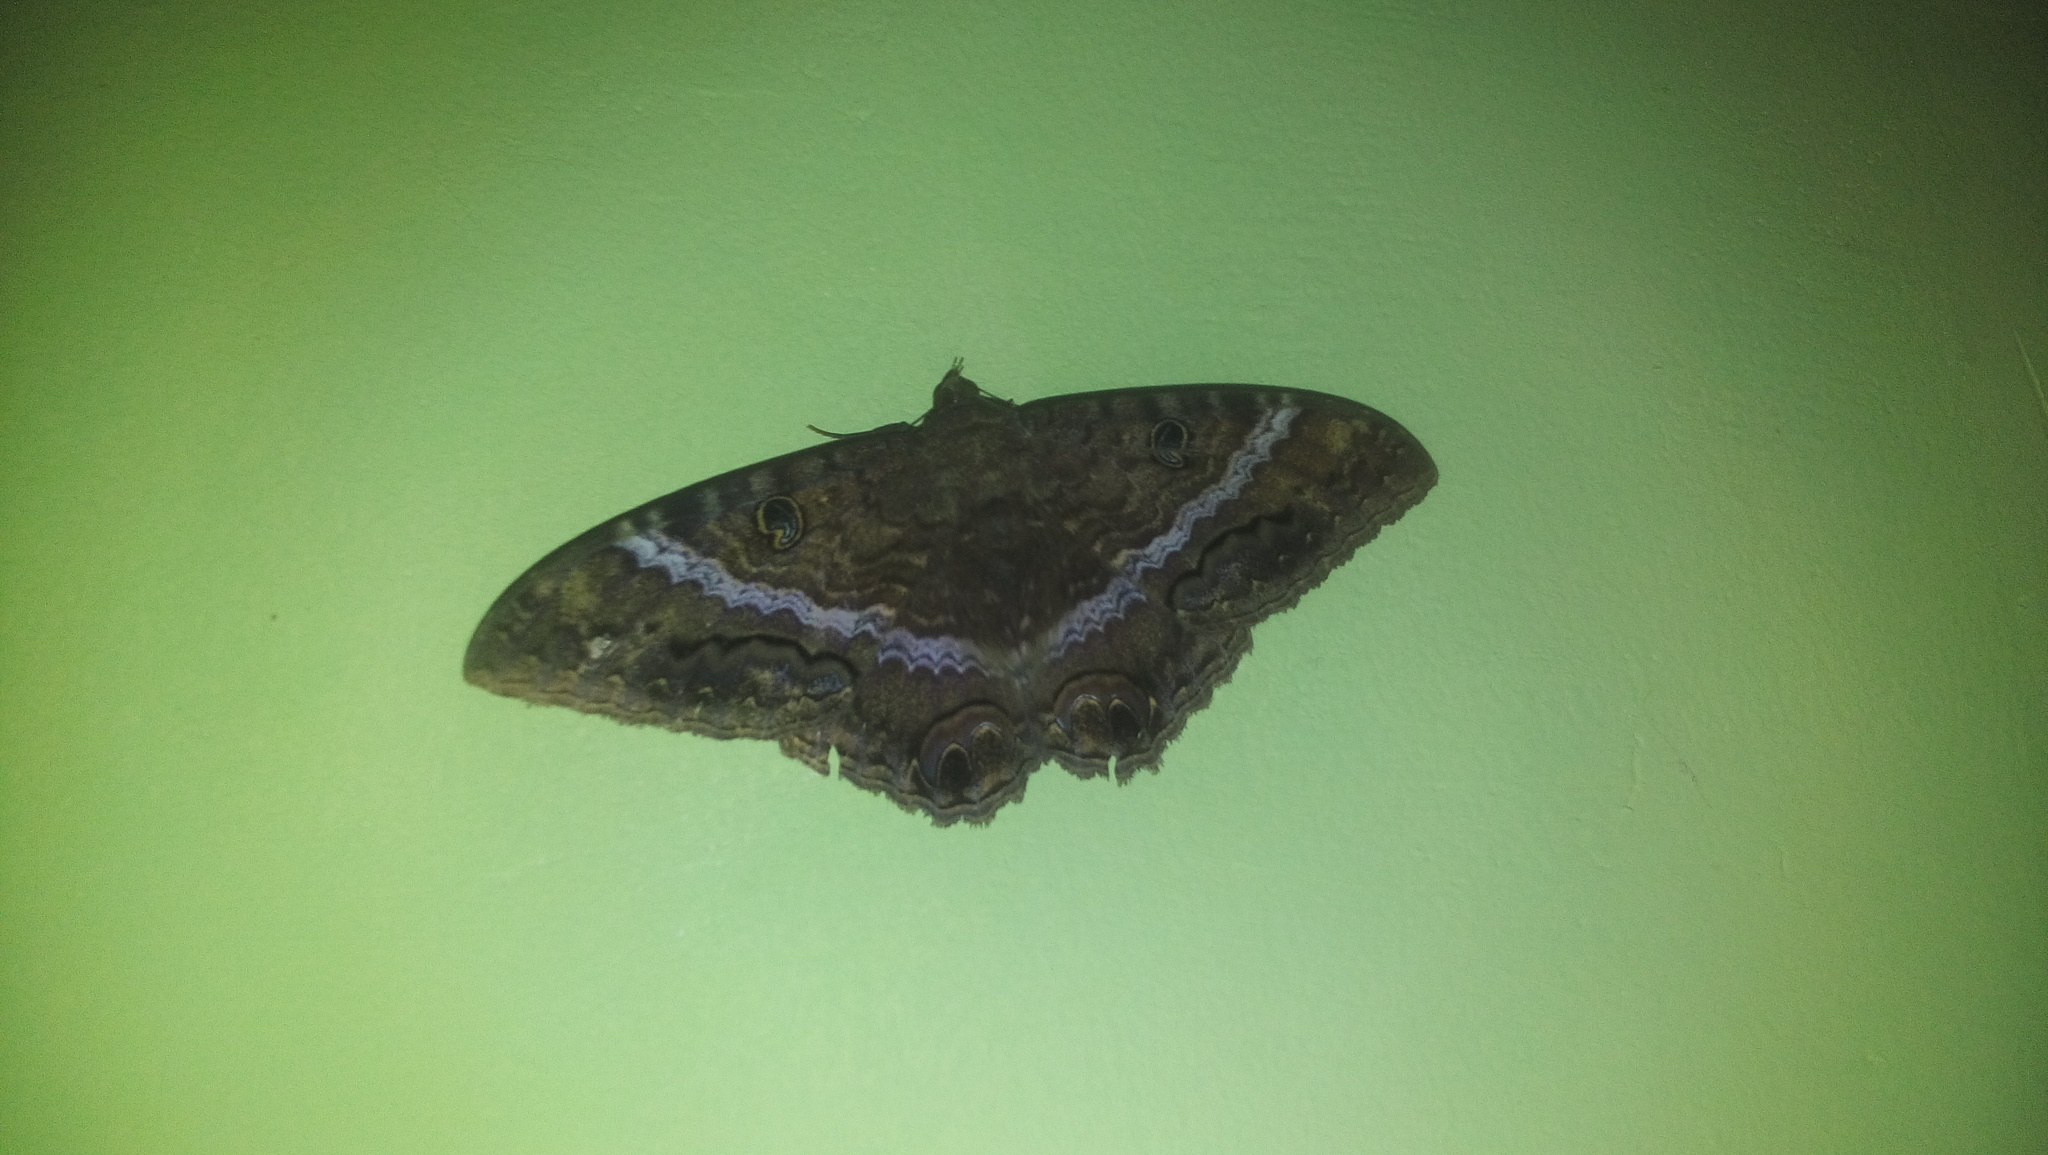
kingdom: Animalia
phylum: Arthropoda
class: Insecta
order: Lepidoptera
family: Erebidae
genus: Ascalapha
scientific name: Ascalapha odorata
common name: Black witch
